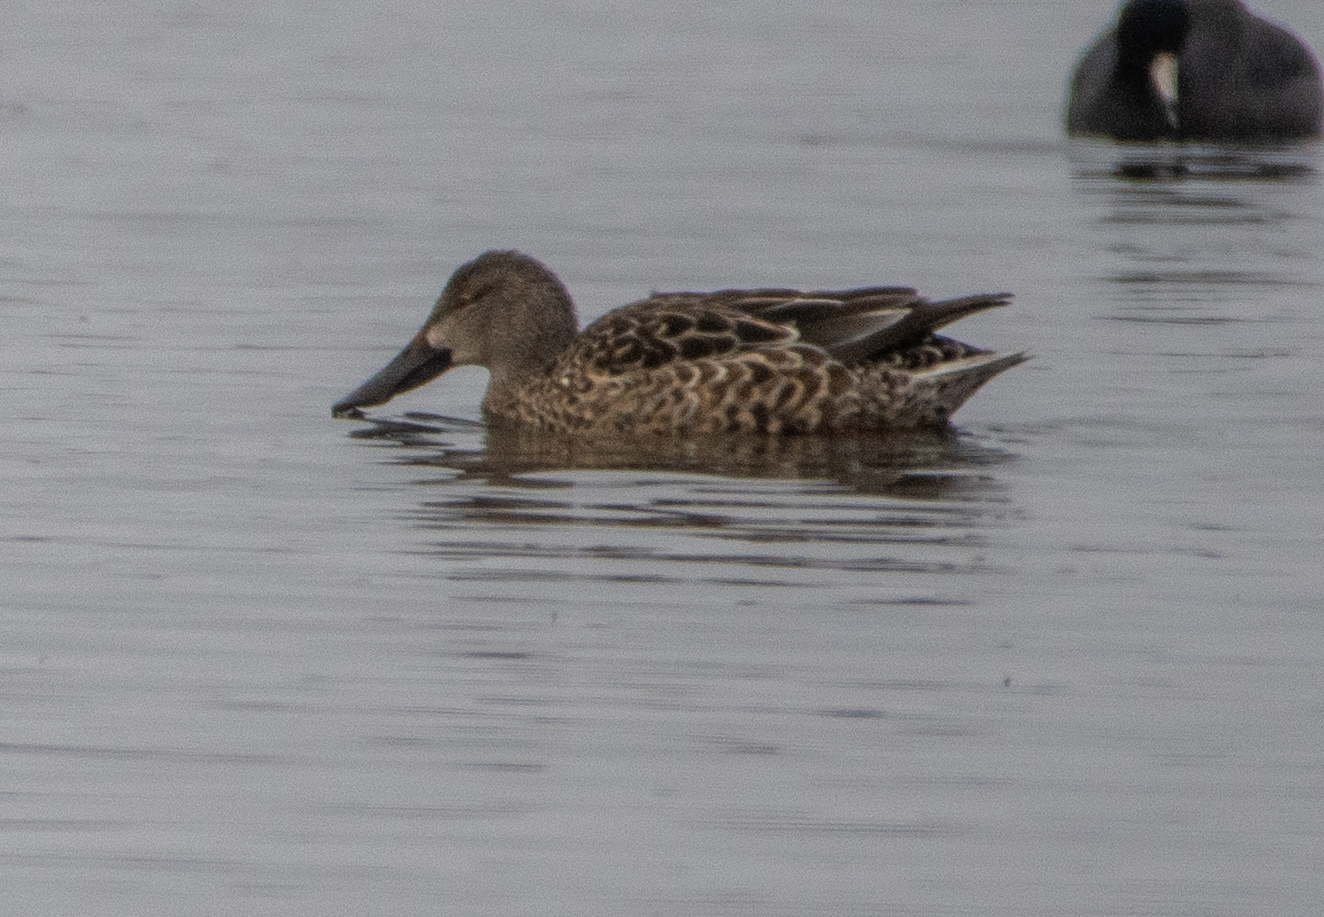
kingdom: Animalia
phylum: Chordata
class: Aves
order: Anseriformes
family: Anatidae
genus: Spatula
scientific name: Spatula clypeata
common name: Northern shoveler
